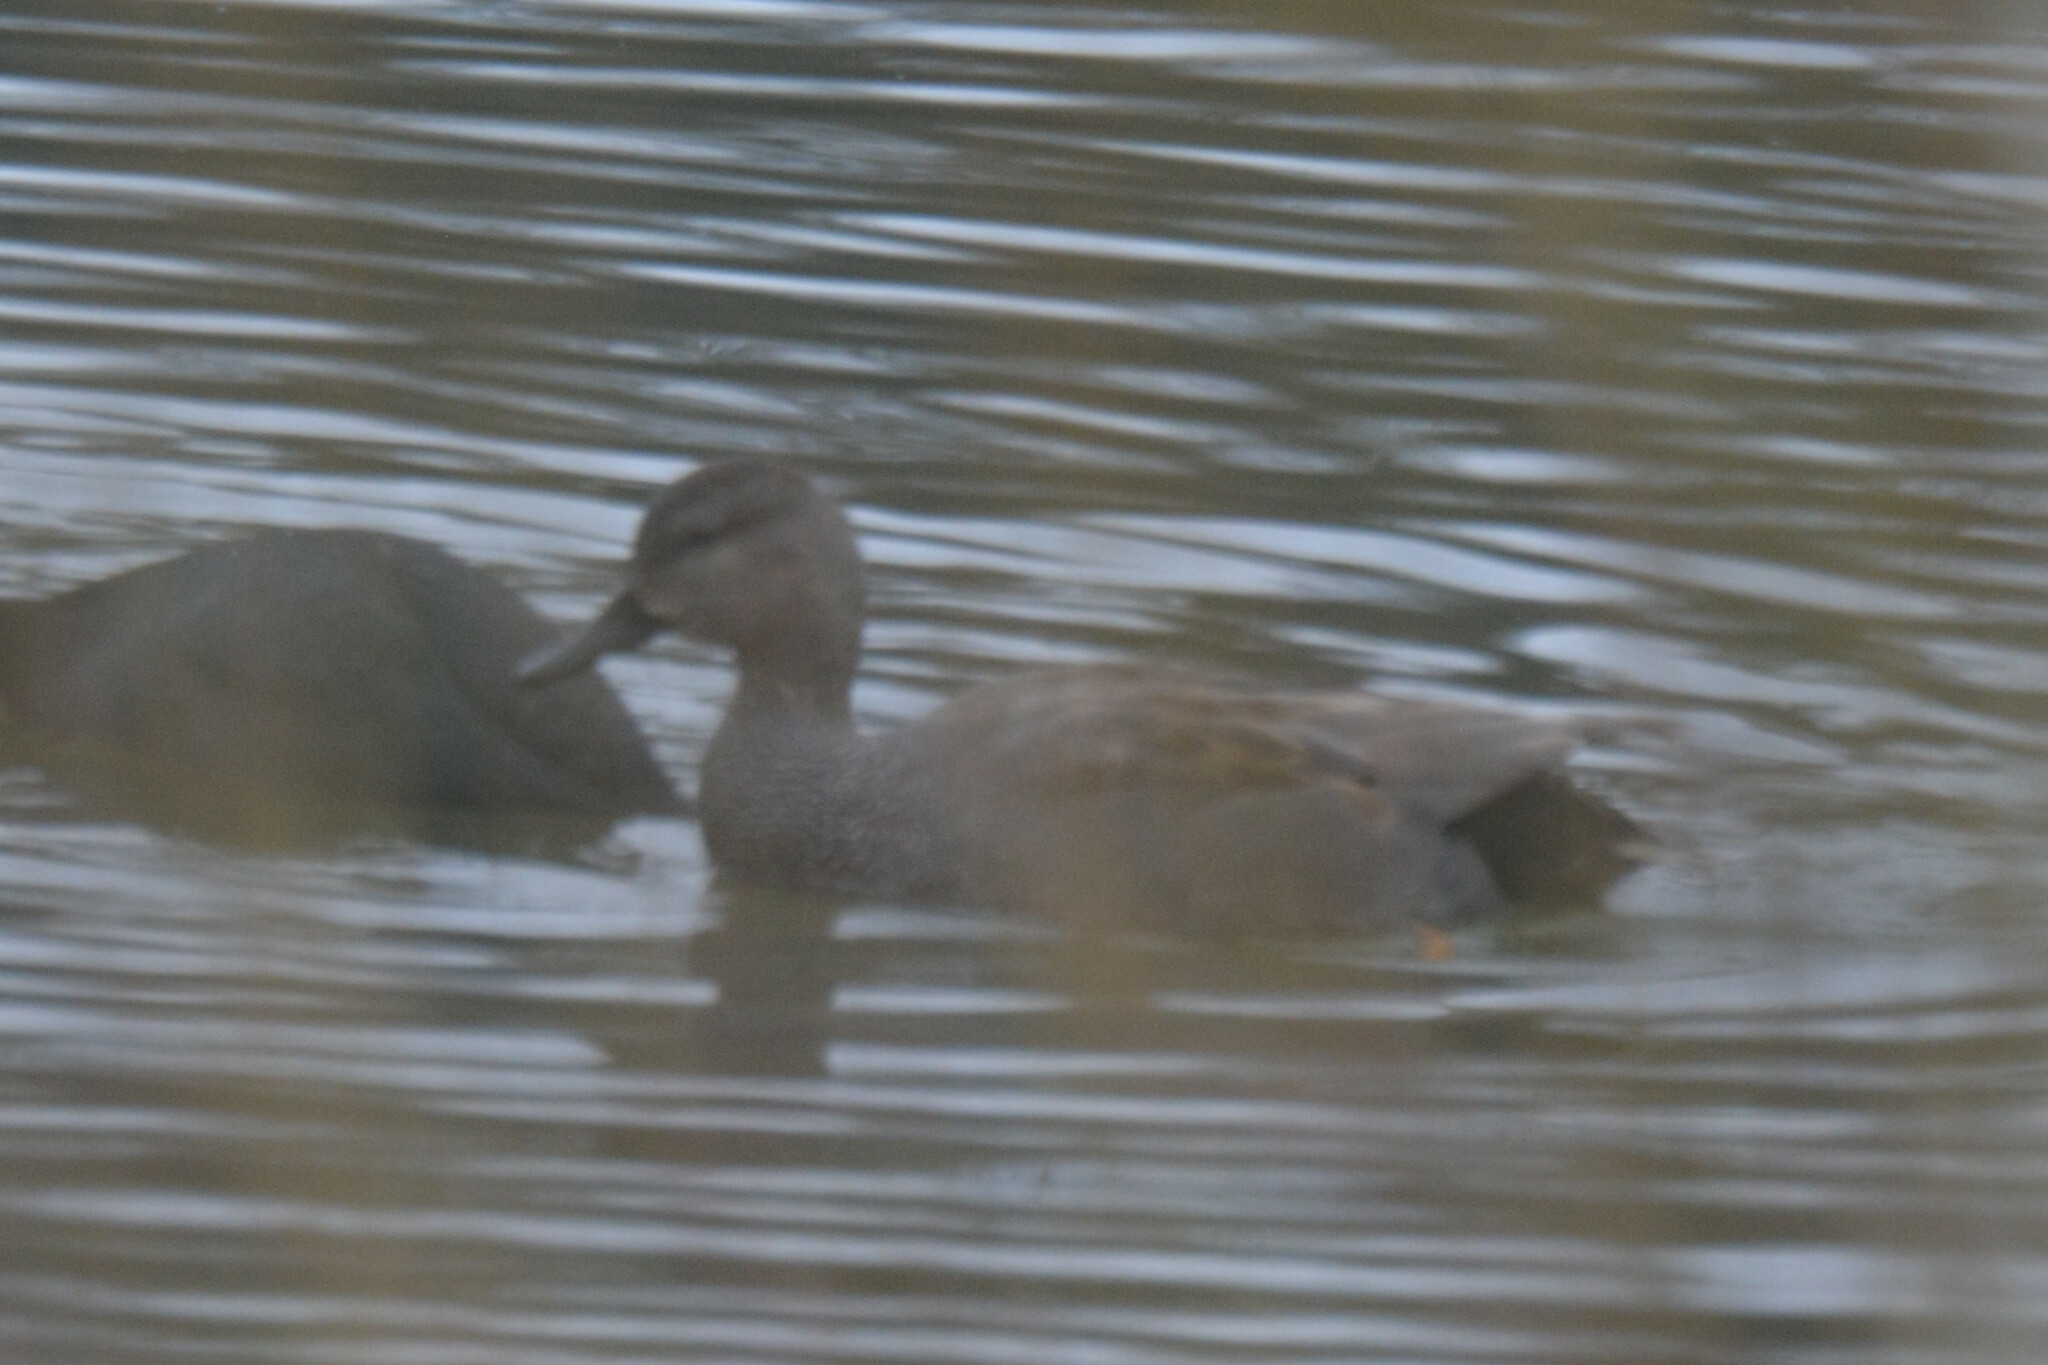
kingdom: Animalia
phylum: Chordata
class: Aves
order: Anseriformes
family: Anatidae
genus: Mareca
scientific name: Mareca strepera
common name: Gadwall
